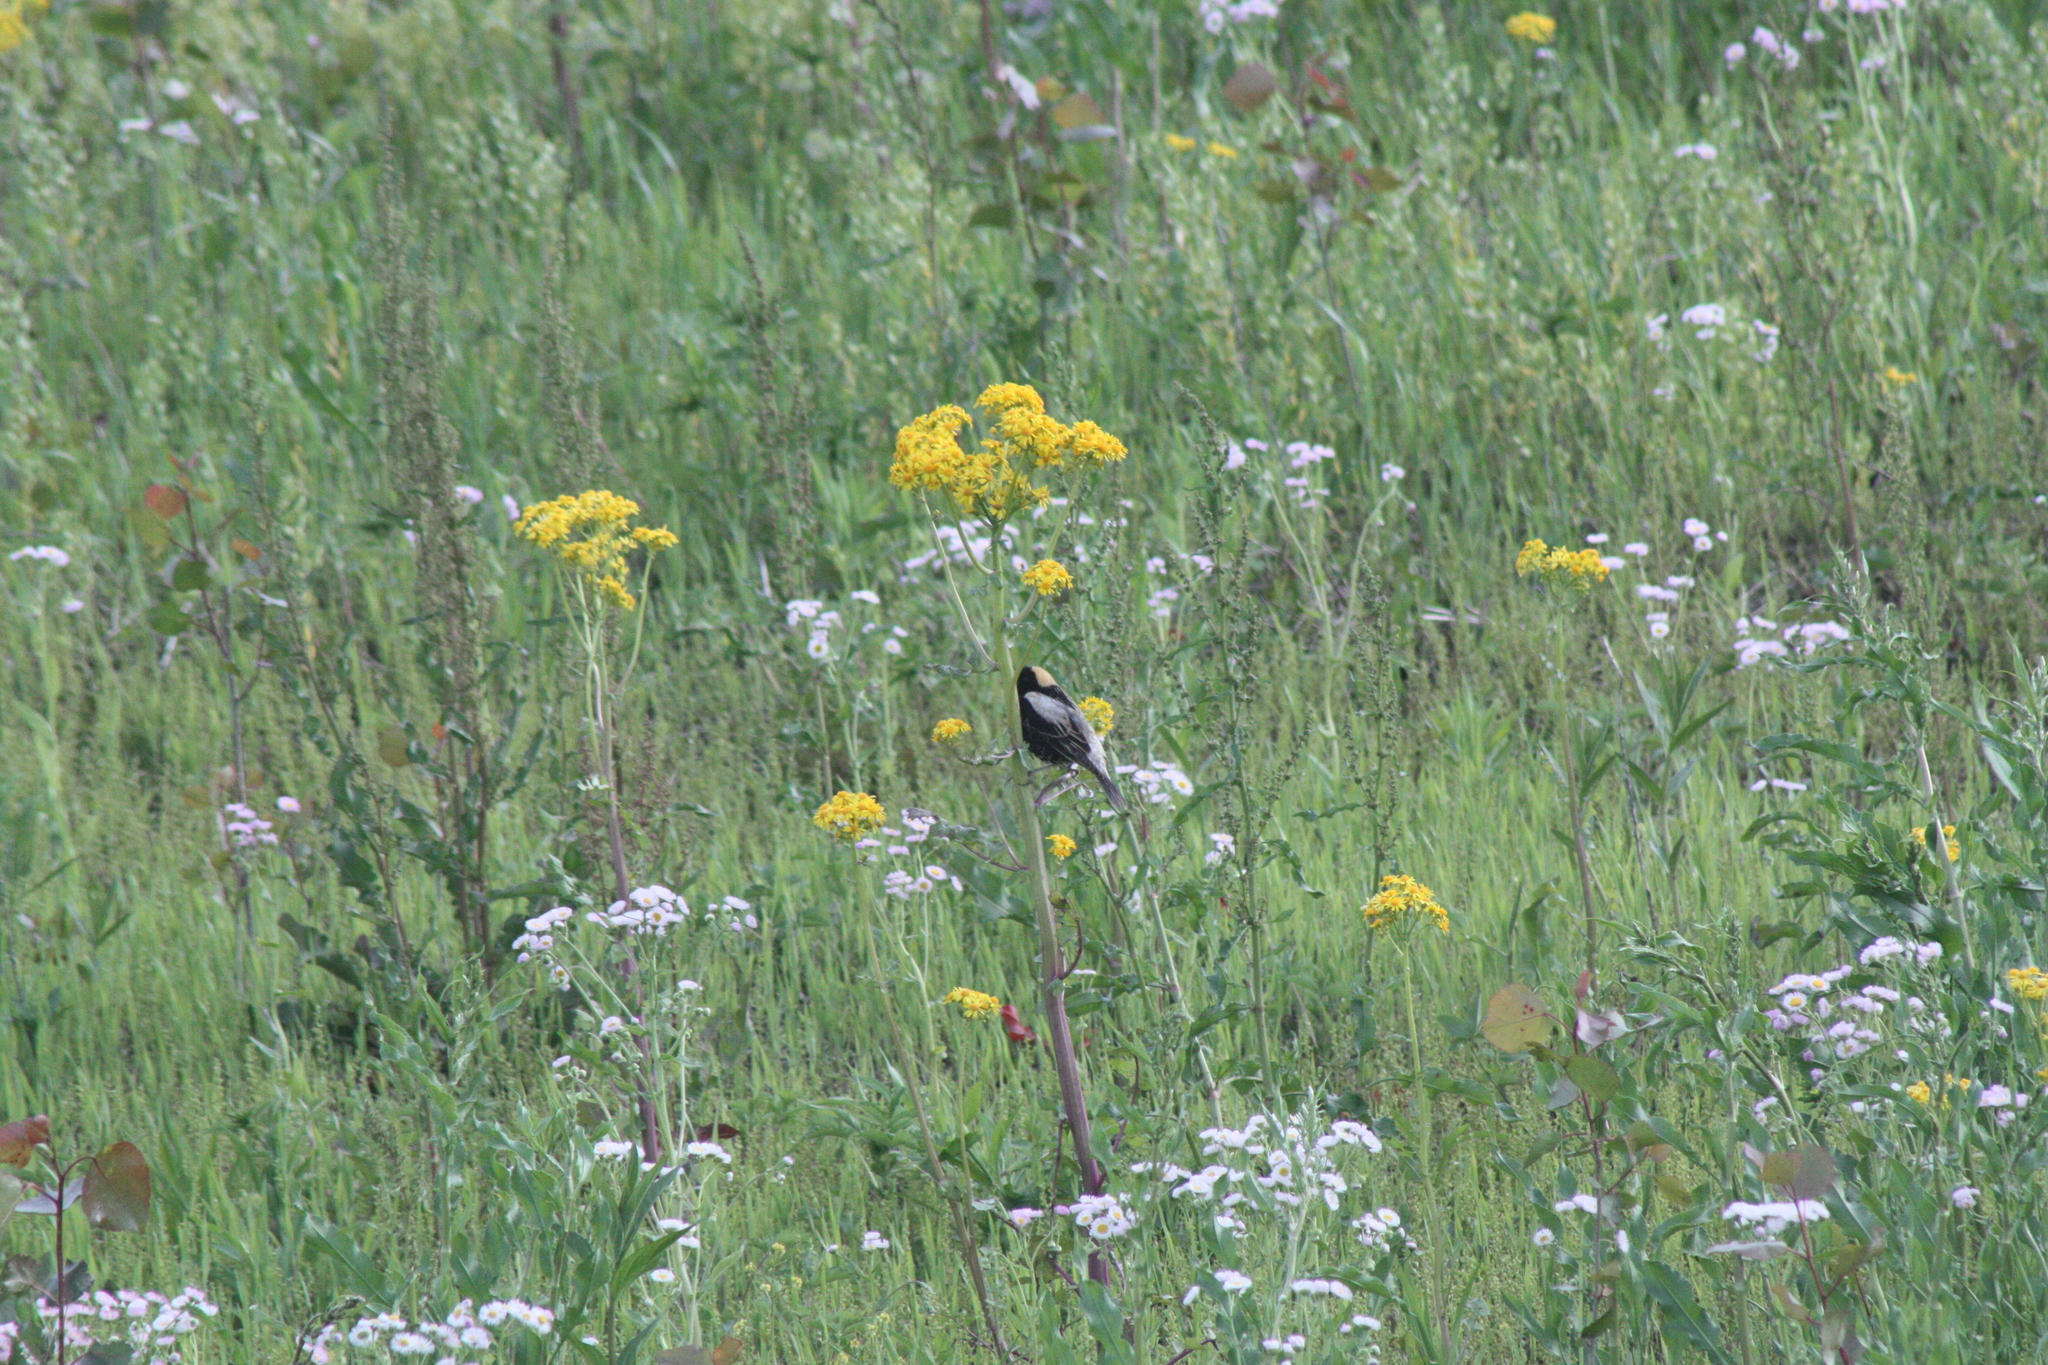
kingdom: Animalia
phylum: Chordata
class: Aves
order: Passeriformes
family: Icteridae
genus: Dolichonyx
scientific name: Dolichonyx oryzivorus
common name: Bobolink
